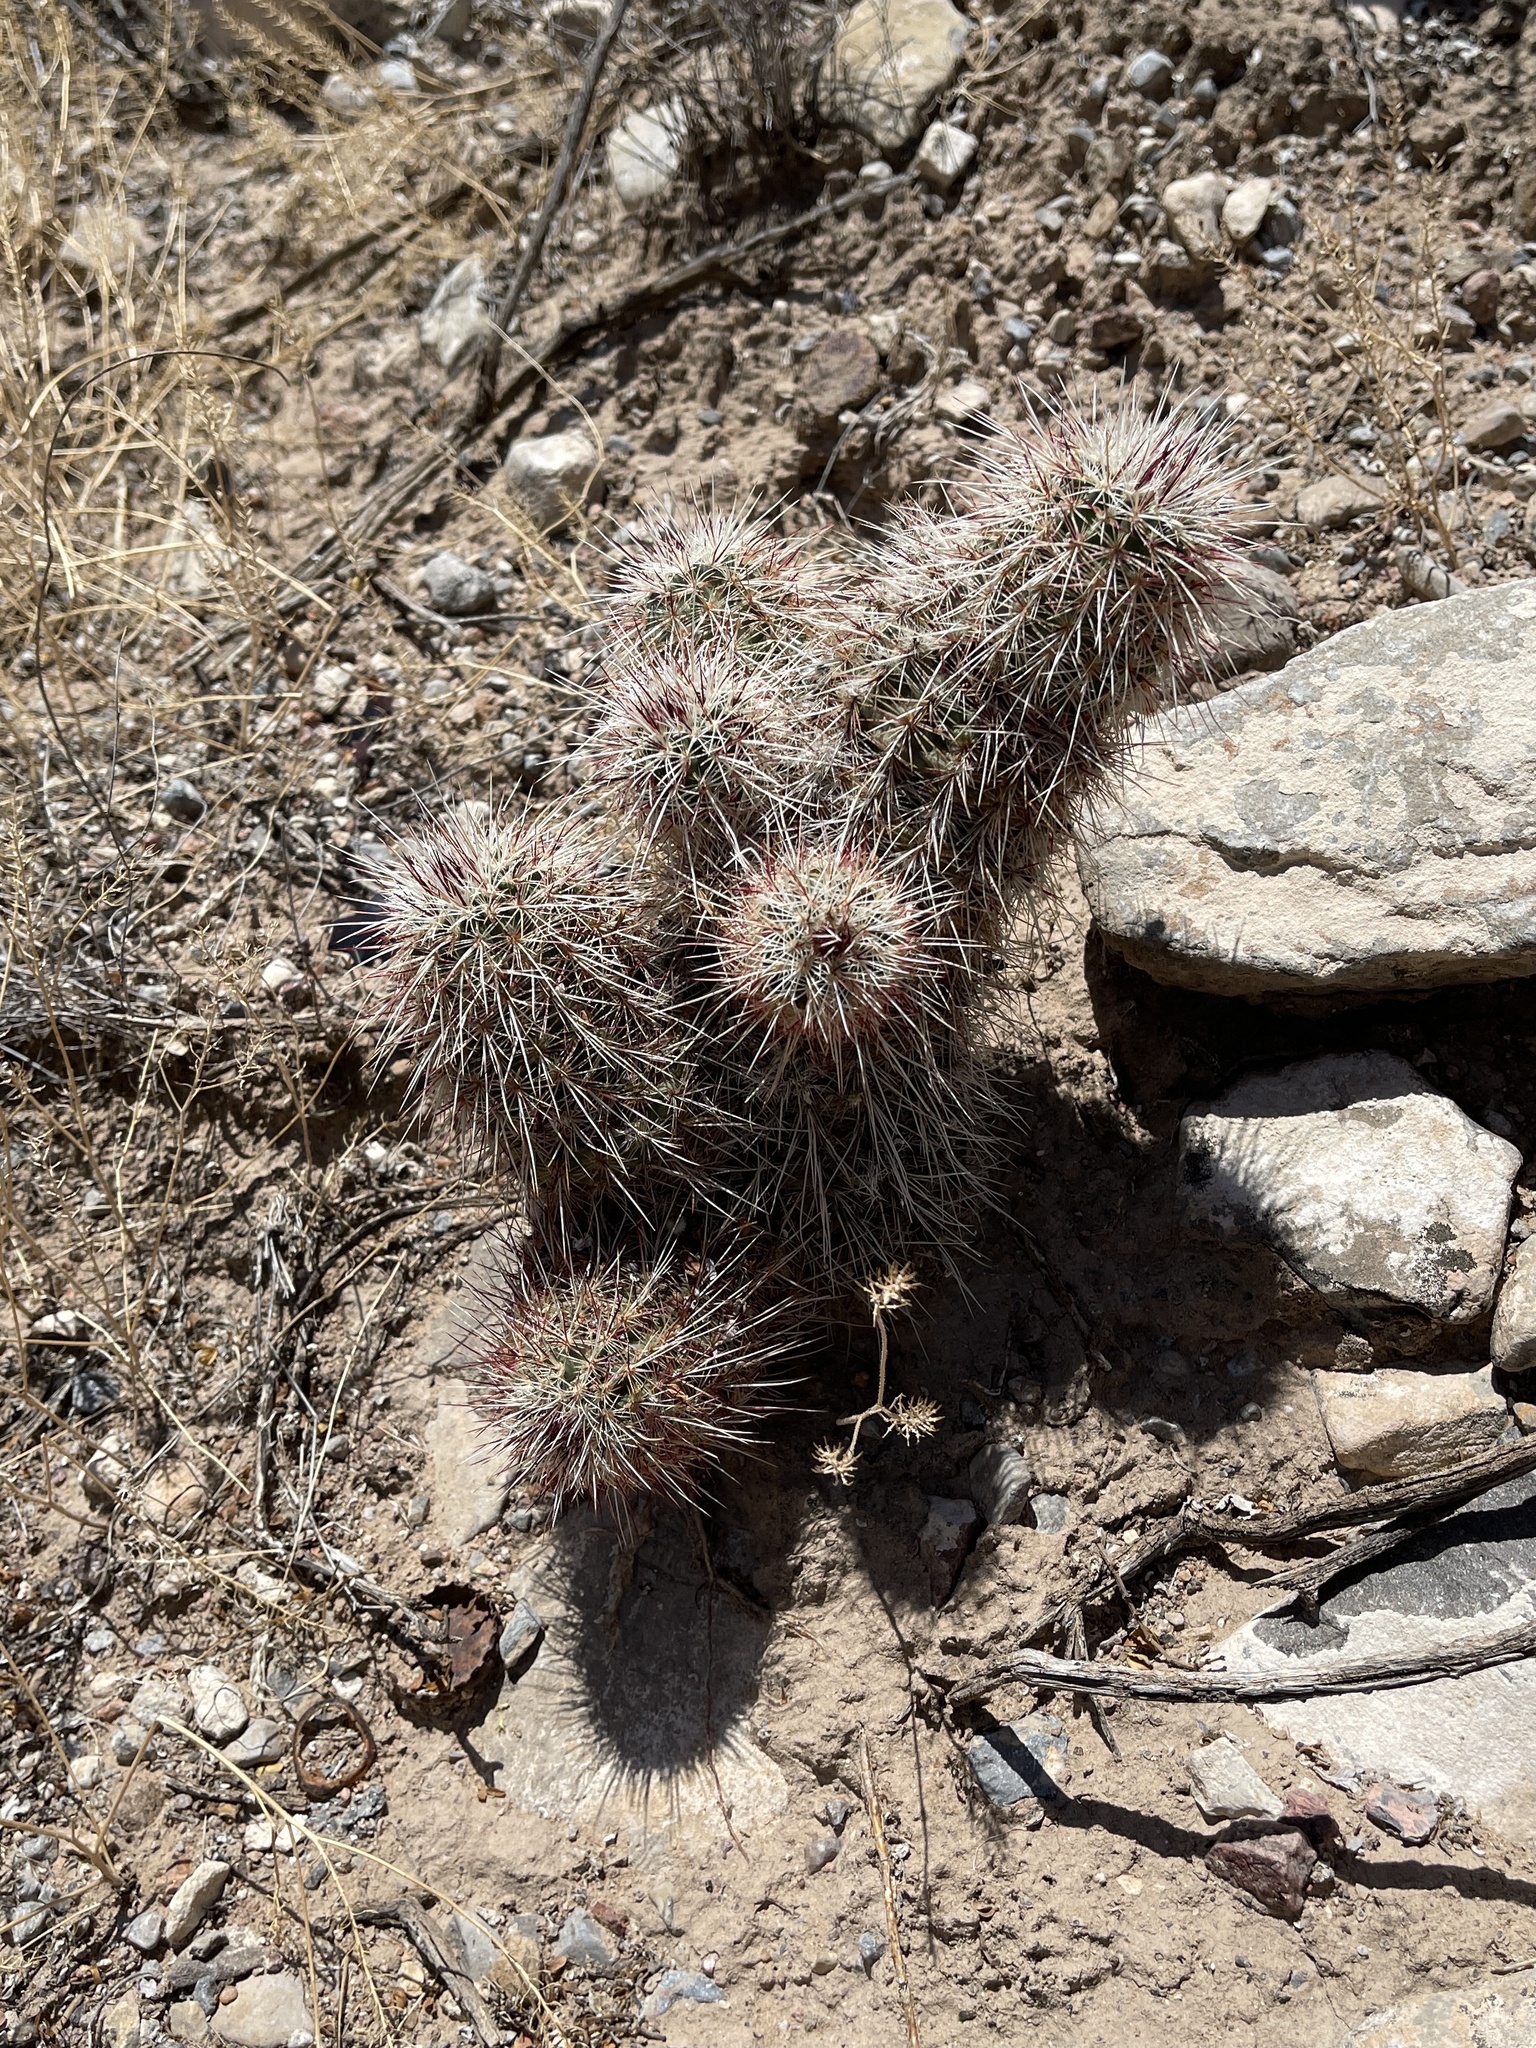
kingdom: Plantae
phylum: Tracheophyta
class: Magnoliopsida
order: Caryophyllales
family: Cactaceae
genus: Echinocereus
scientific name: Echinocereus viridiflorus
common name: Nylon hedgehog cactus
